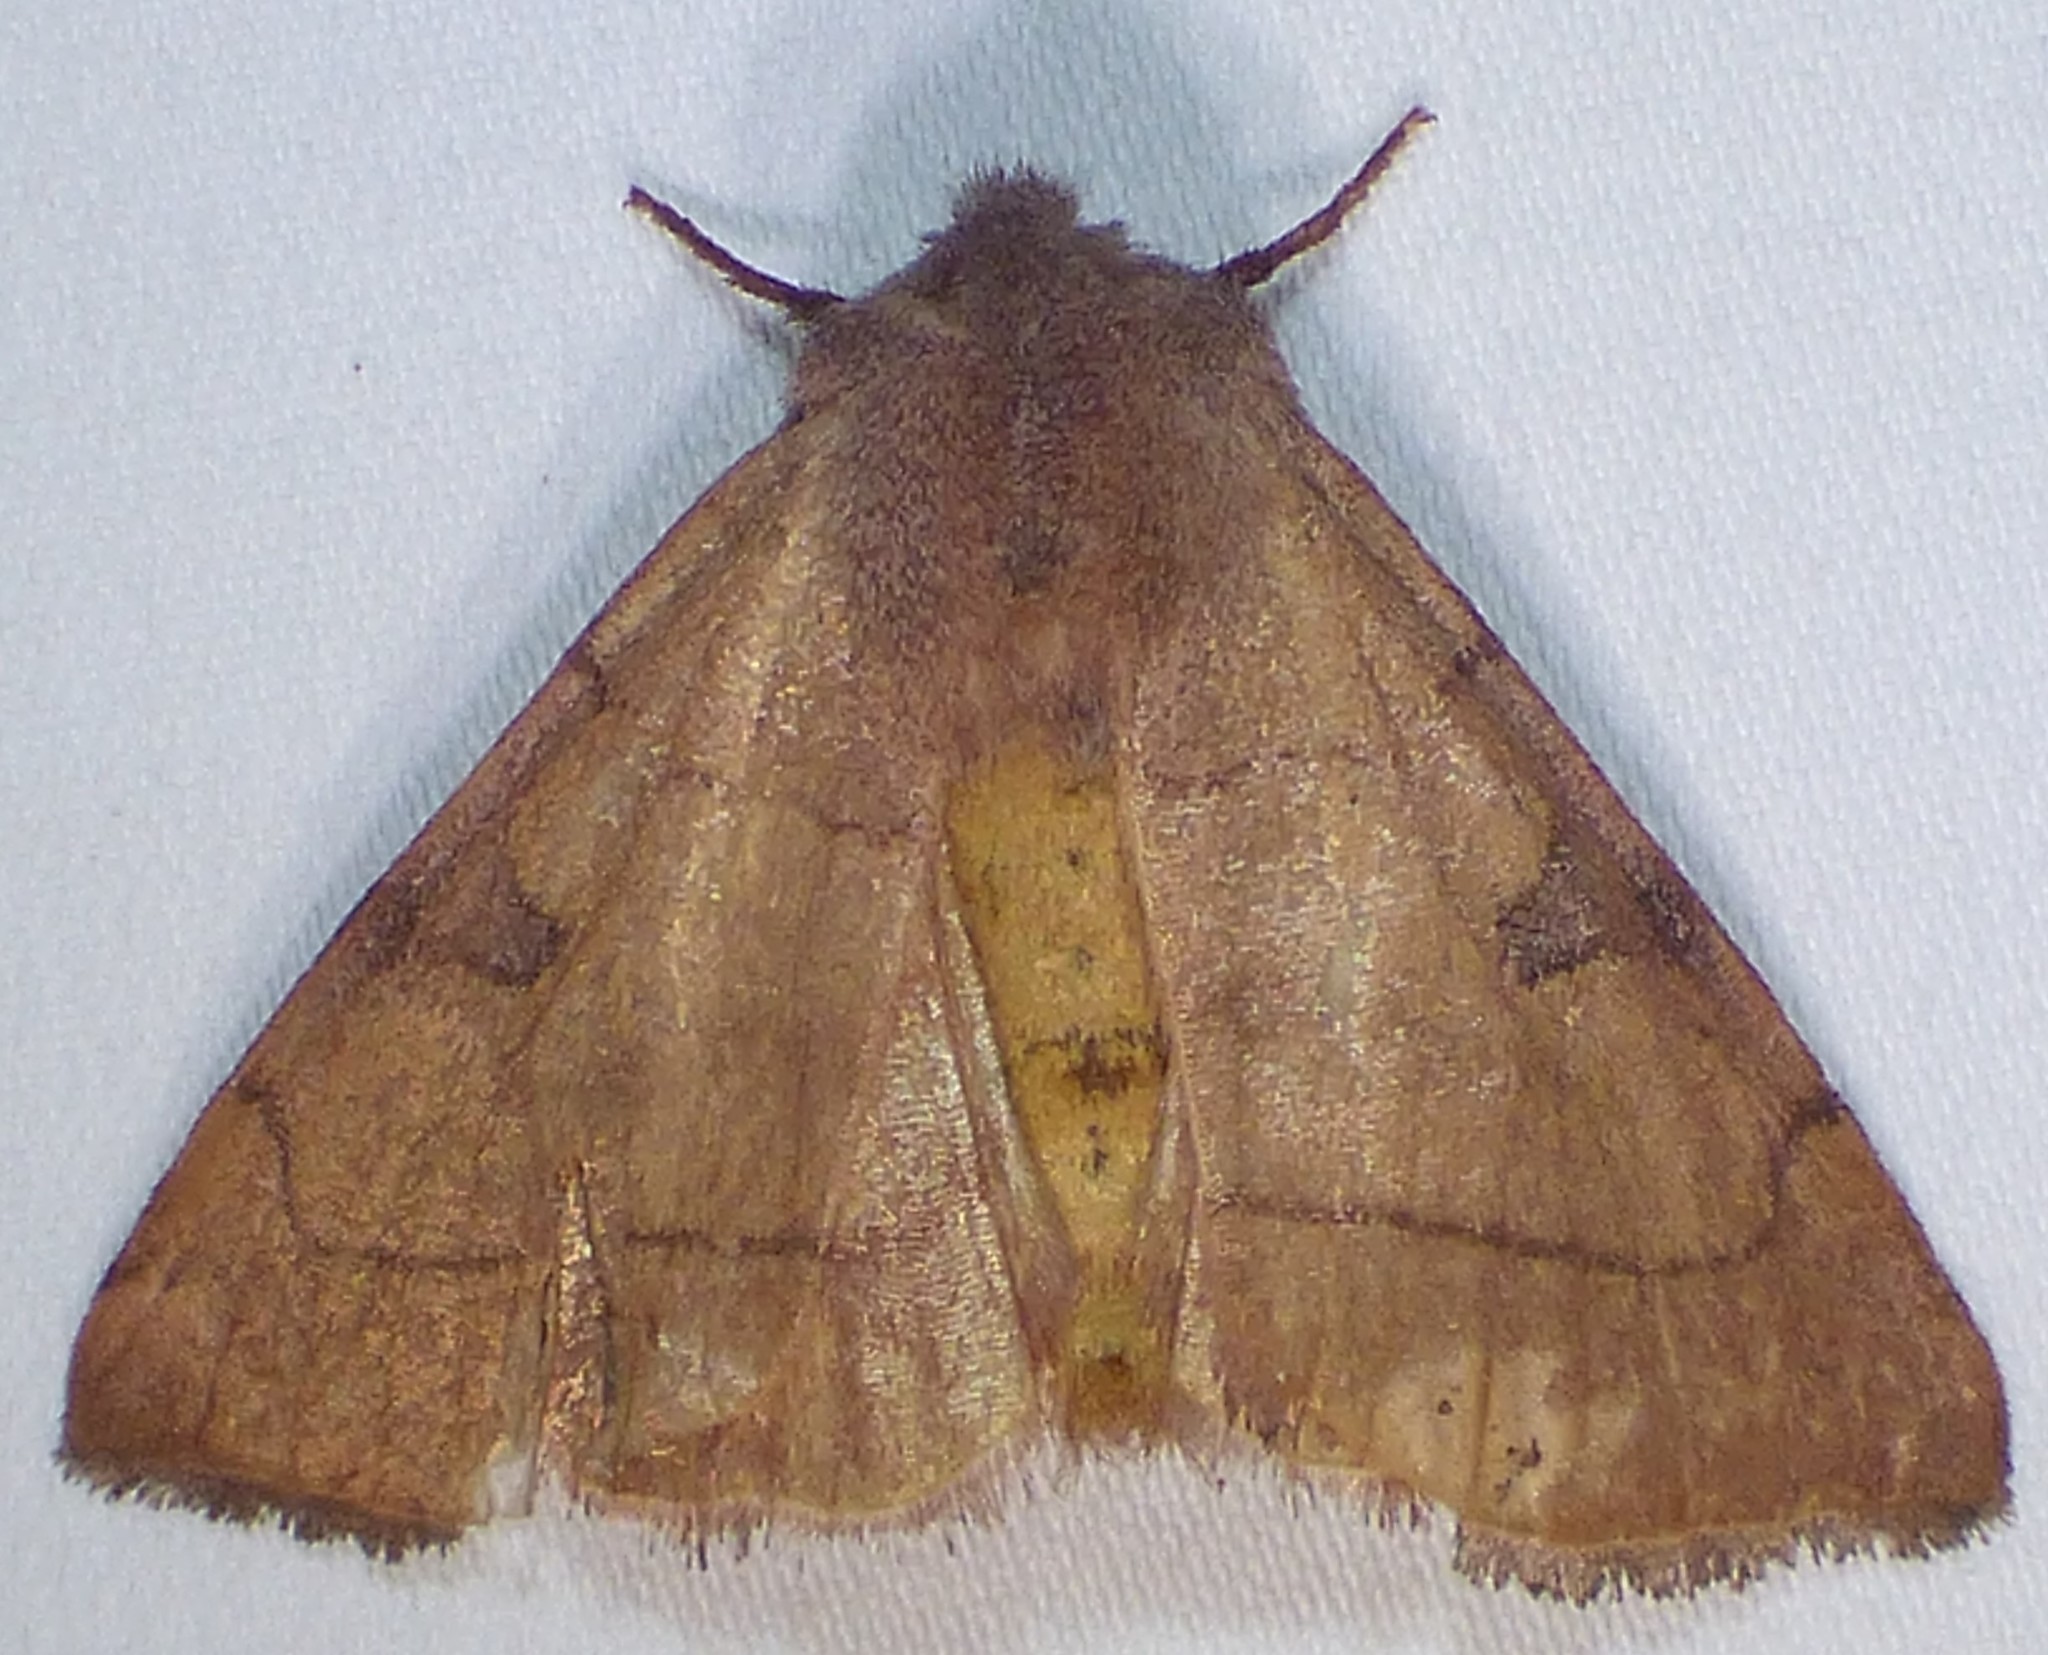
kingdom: Animalia
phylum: Arthropoda
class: Insecta
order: Lepidoptera
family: Noctuidae
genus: Choephora
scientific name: Choephora fungorum
